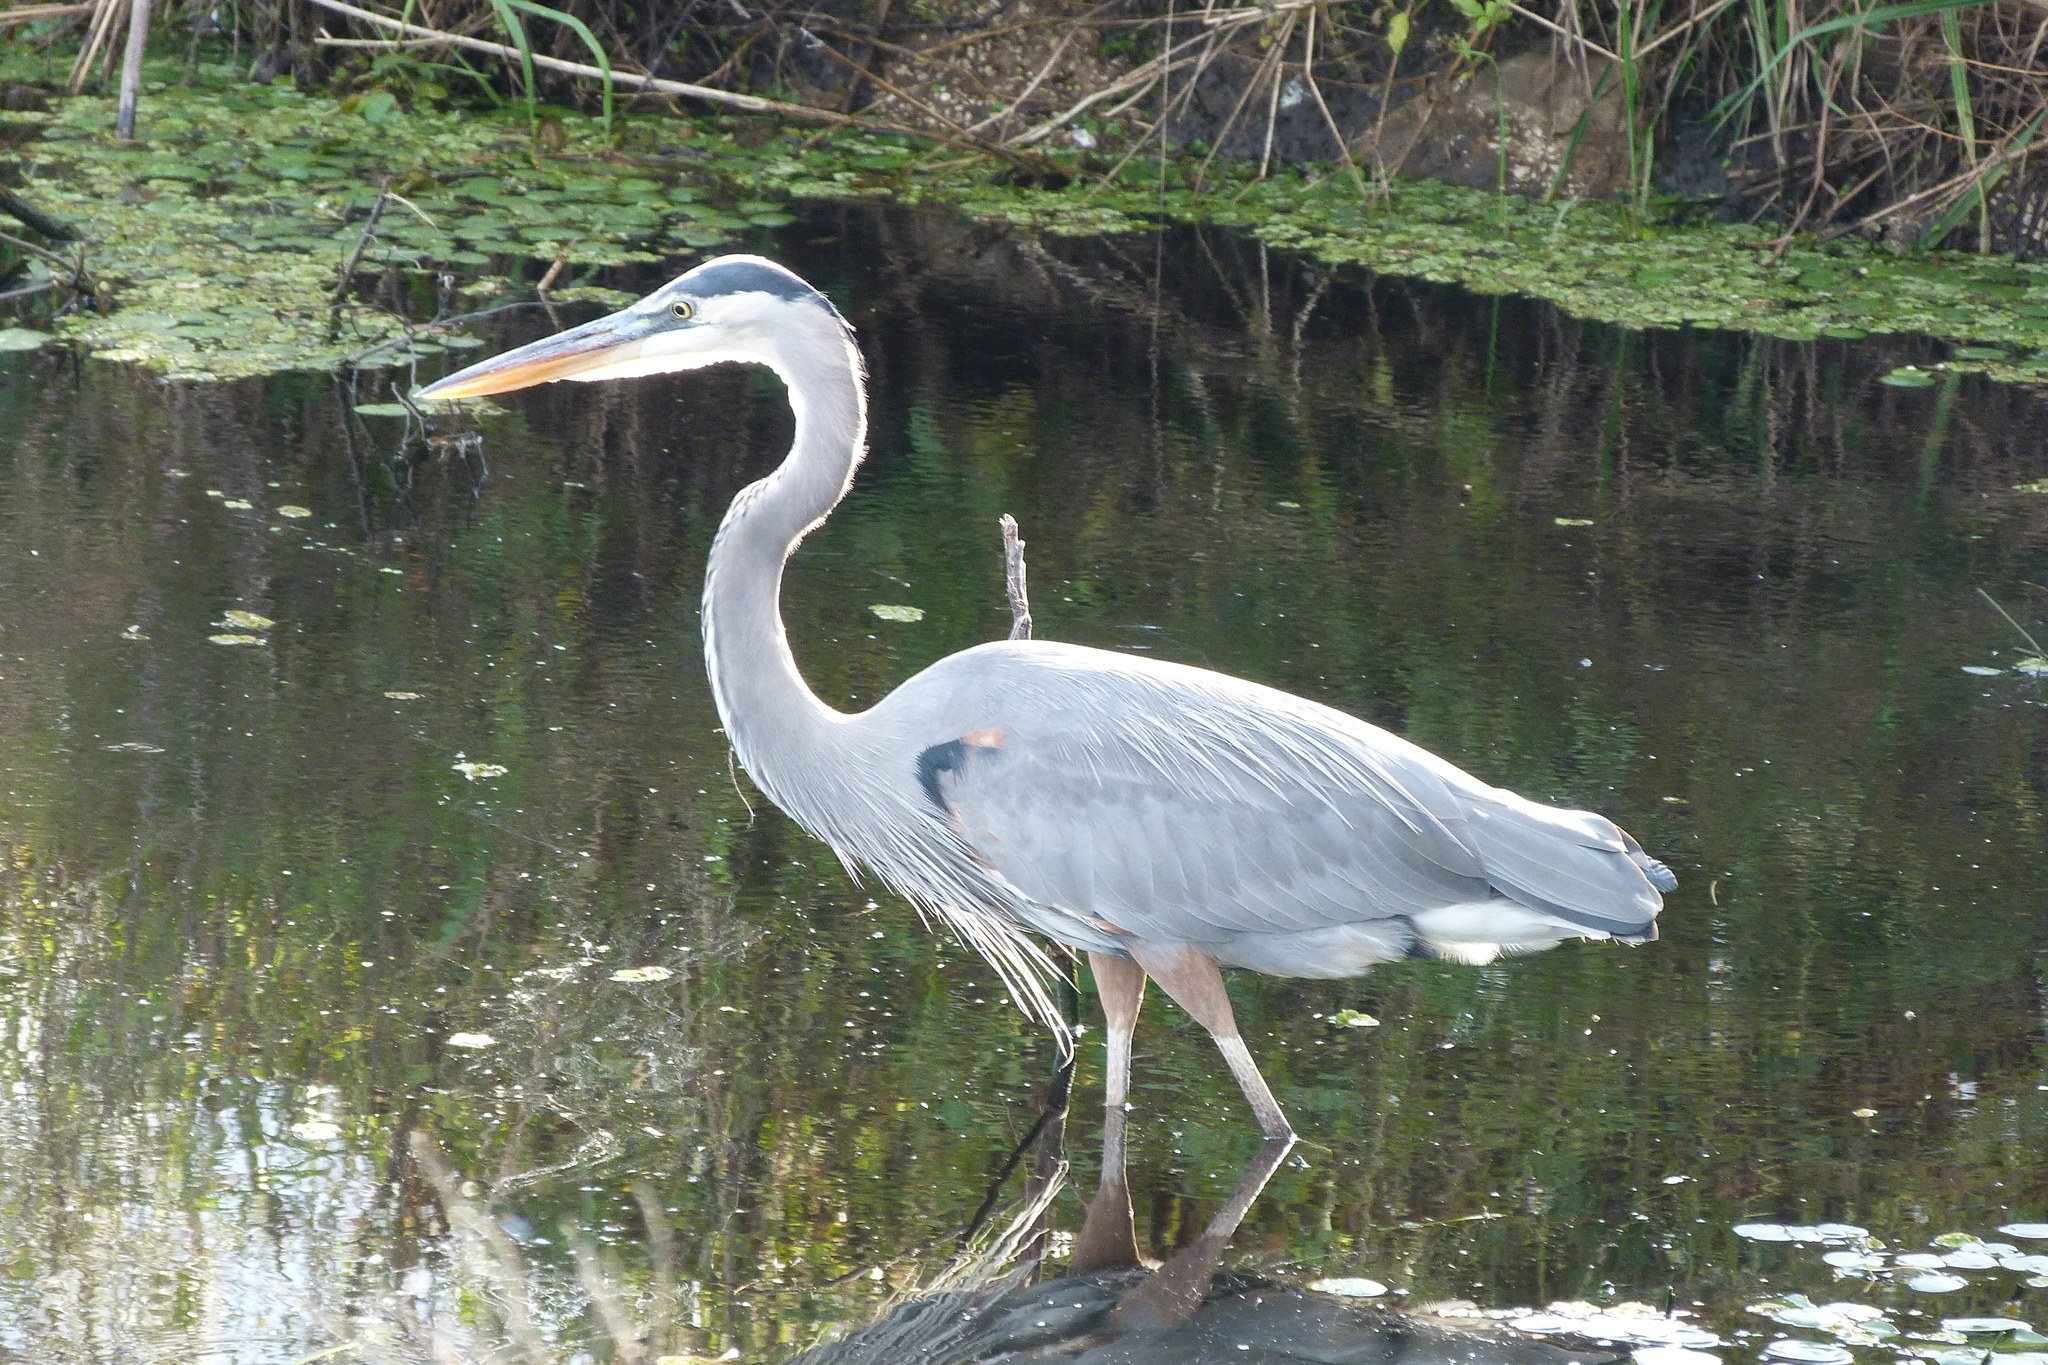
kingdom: Animalia
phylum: Chordata
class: Aves
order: Pelecaniformes
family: Ardeidae
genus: Ardea
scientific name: Ardea herodias
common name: Great blue heron
